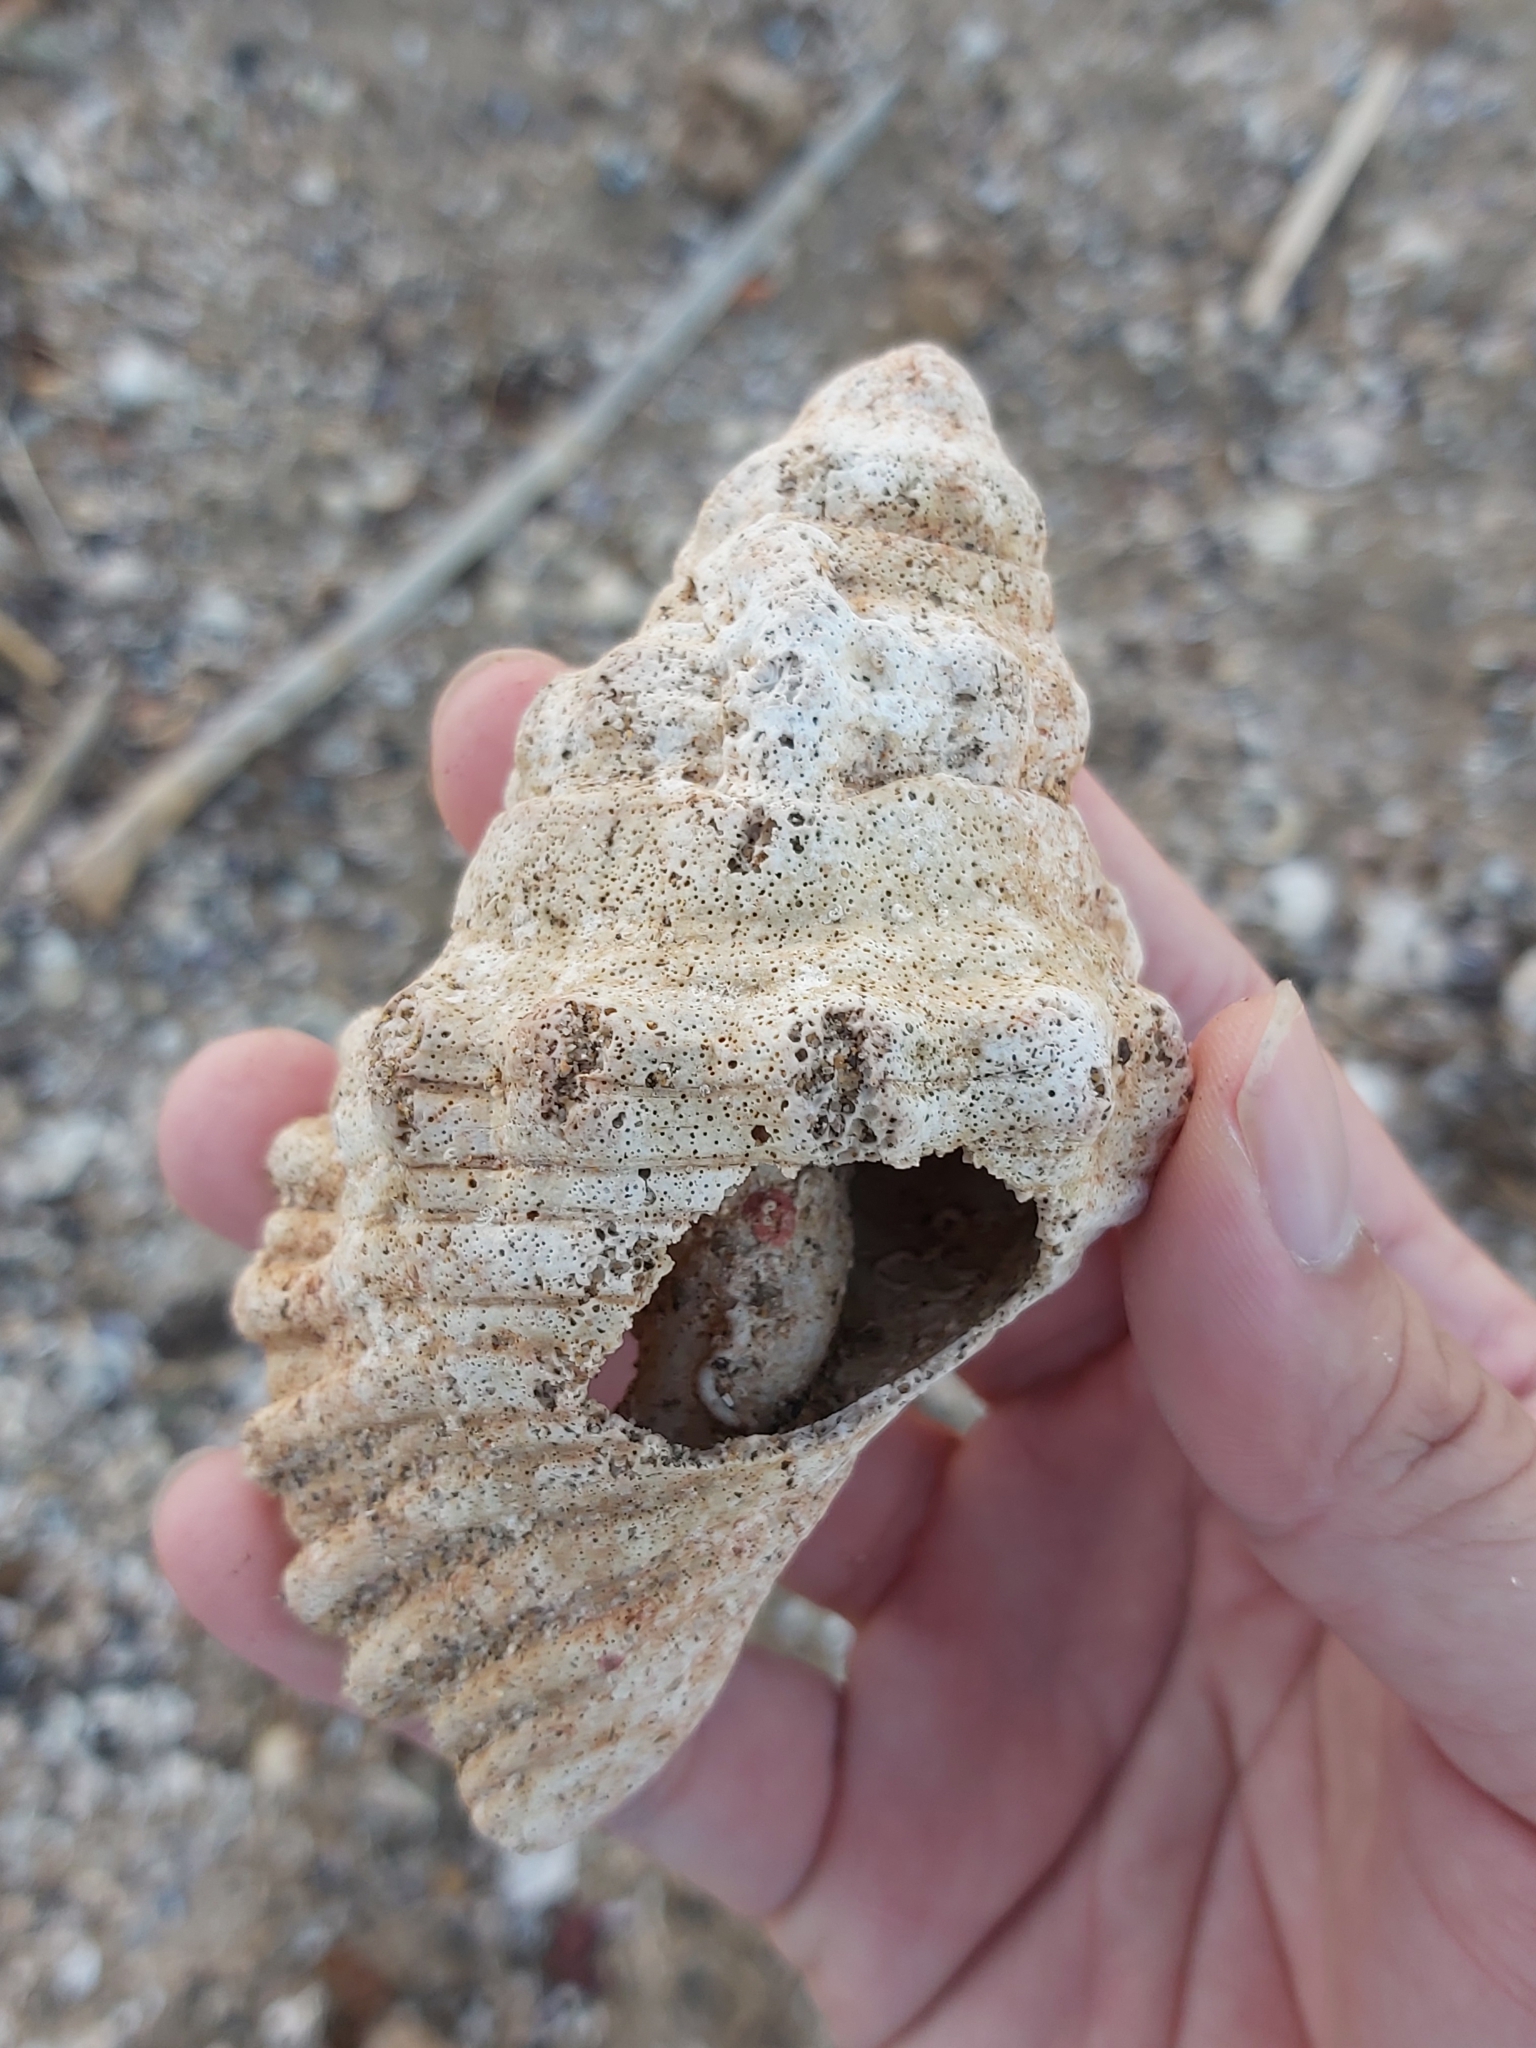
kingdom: Animalia
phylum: Mollusca
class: Gastropoda
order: Littorinimorpha
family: Cymatiidae
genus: Cabestana
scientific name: Cabestana spengleri
